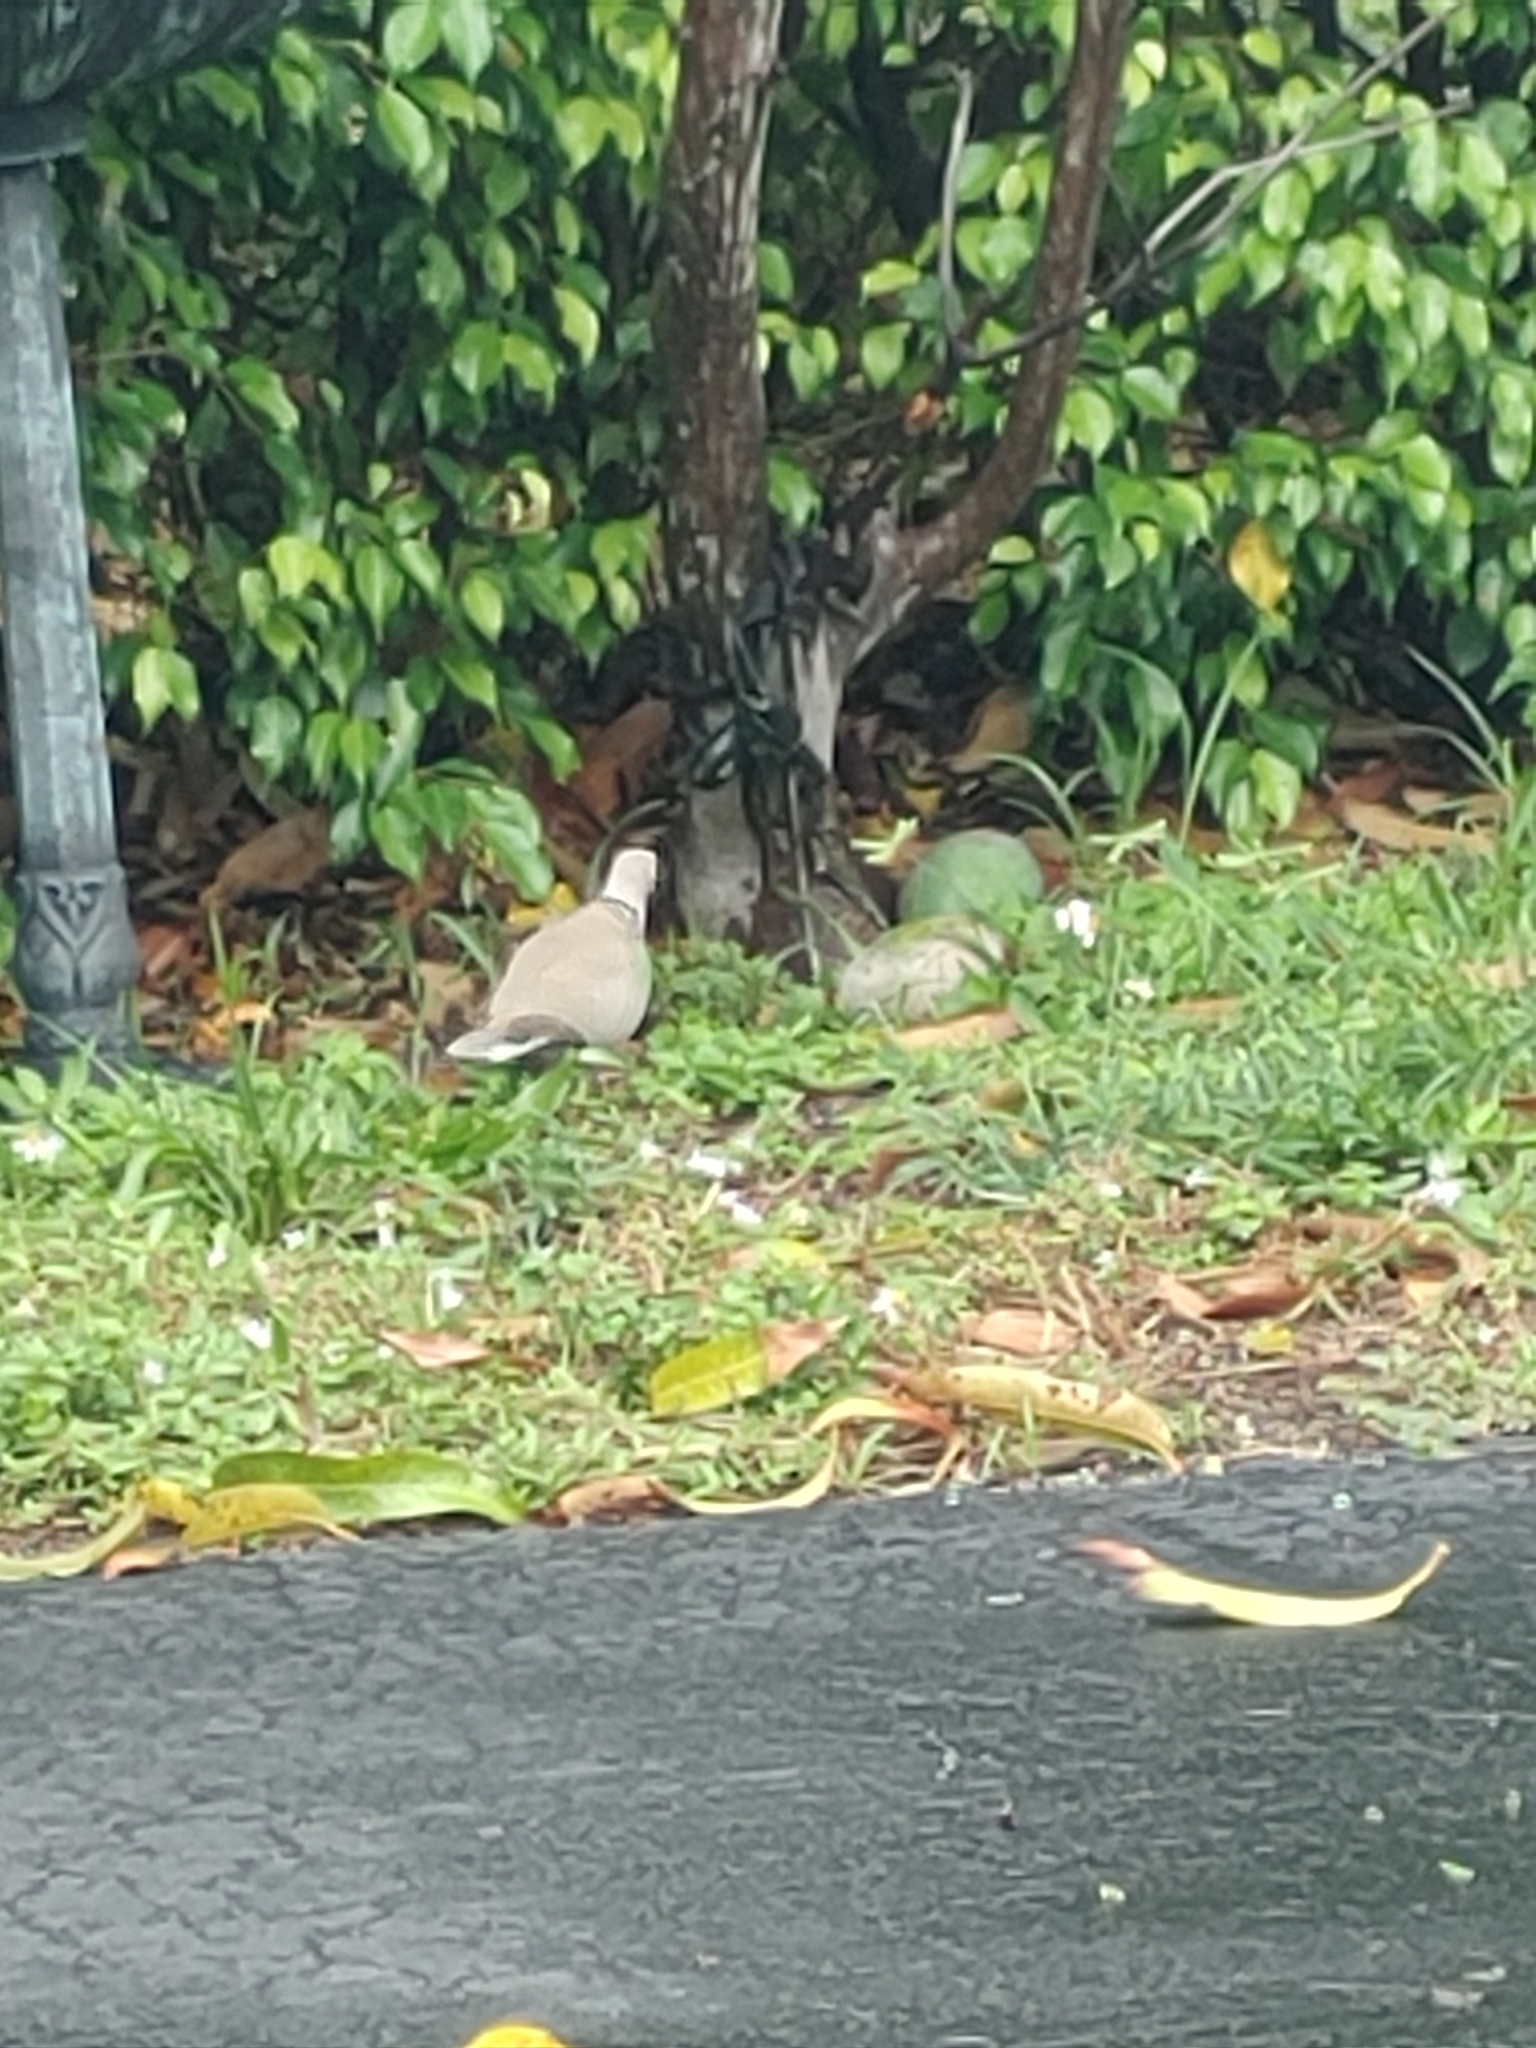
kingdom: Animalia
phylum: Chordata
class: Aves
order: Columbiformes
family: Columbidae
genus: Streptopelia
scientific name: Streptopelia decaocto
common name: Eurasian collared dove
